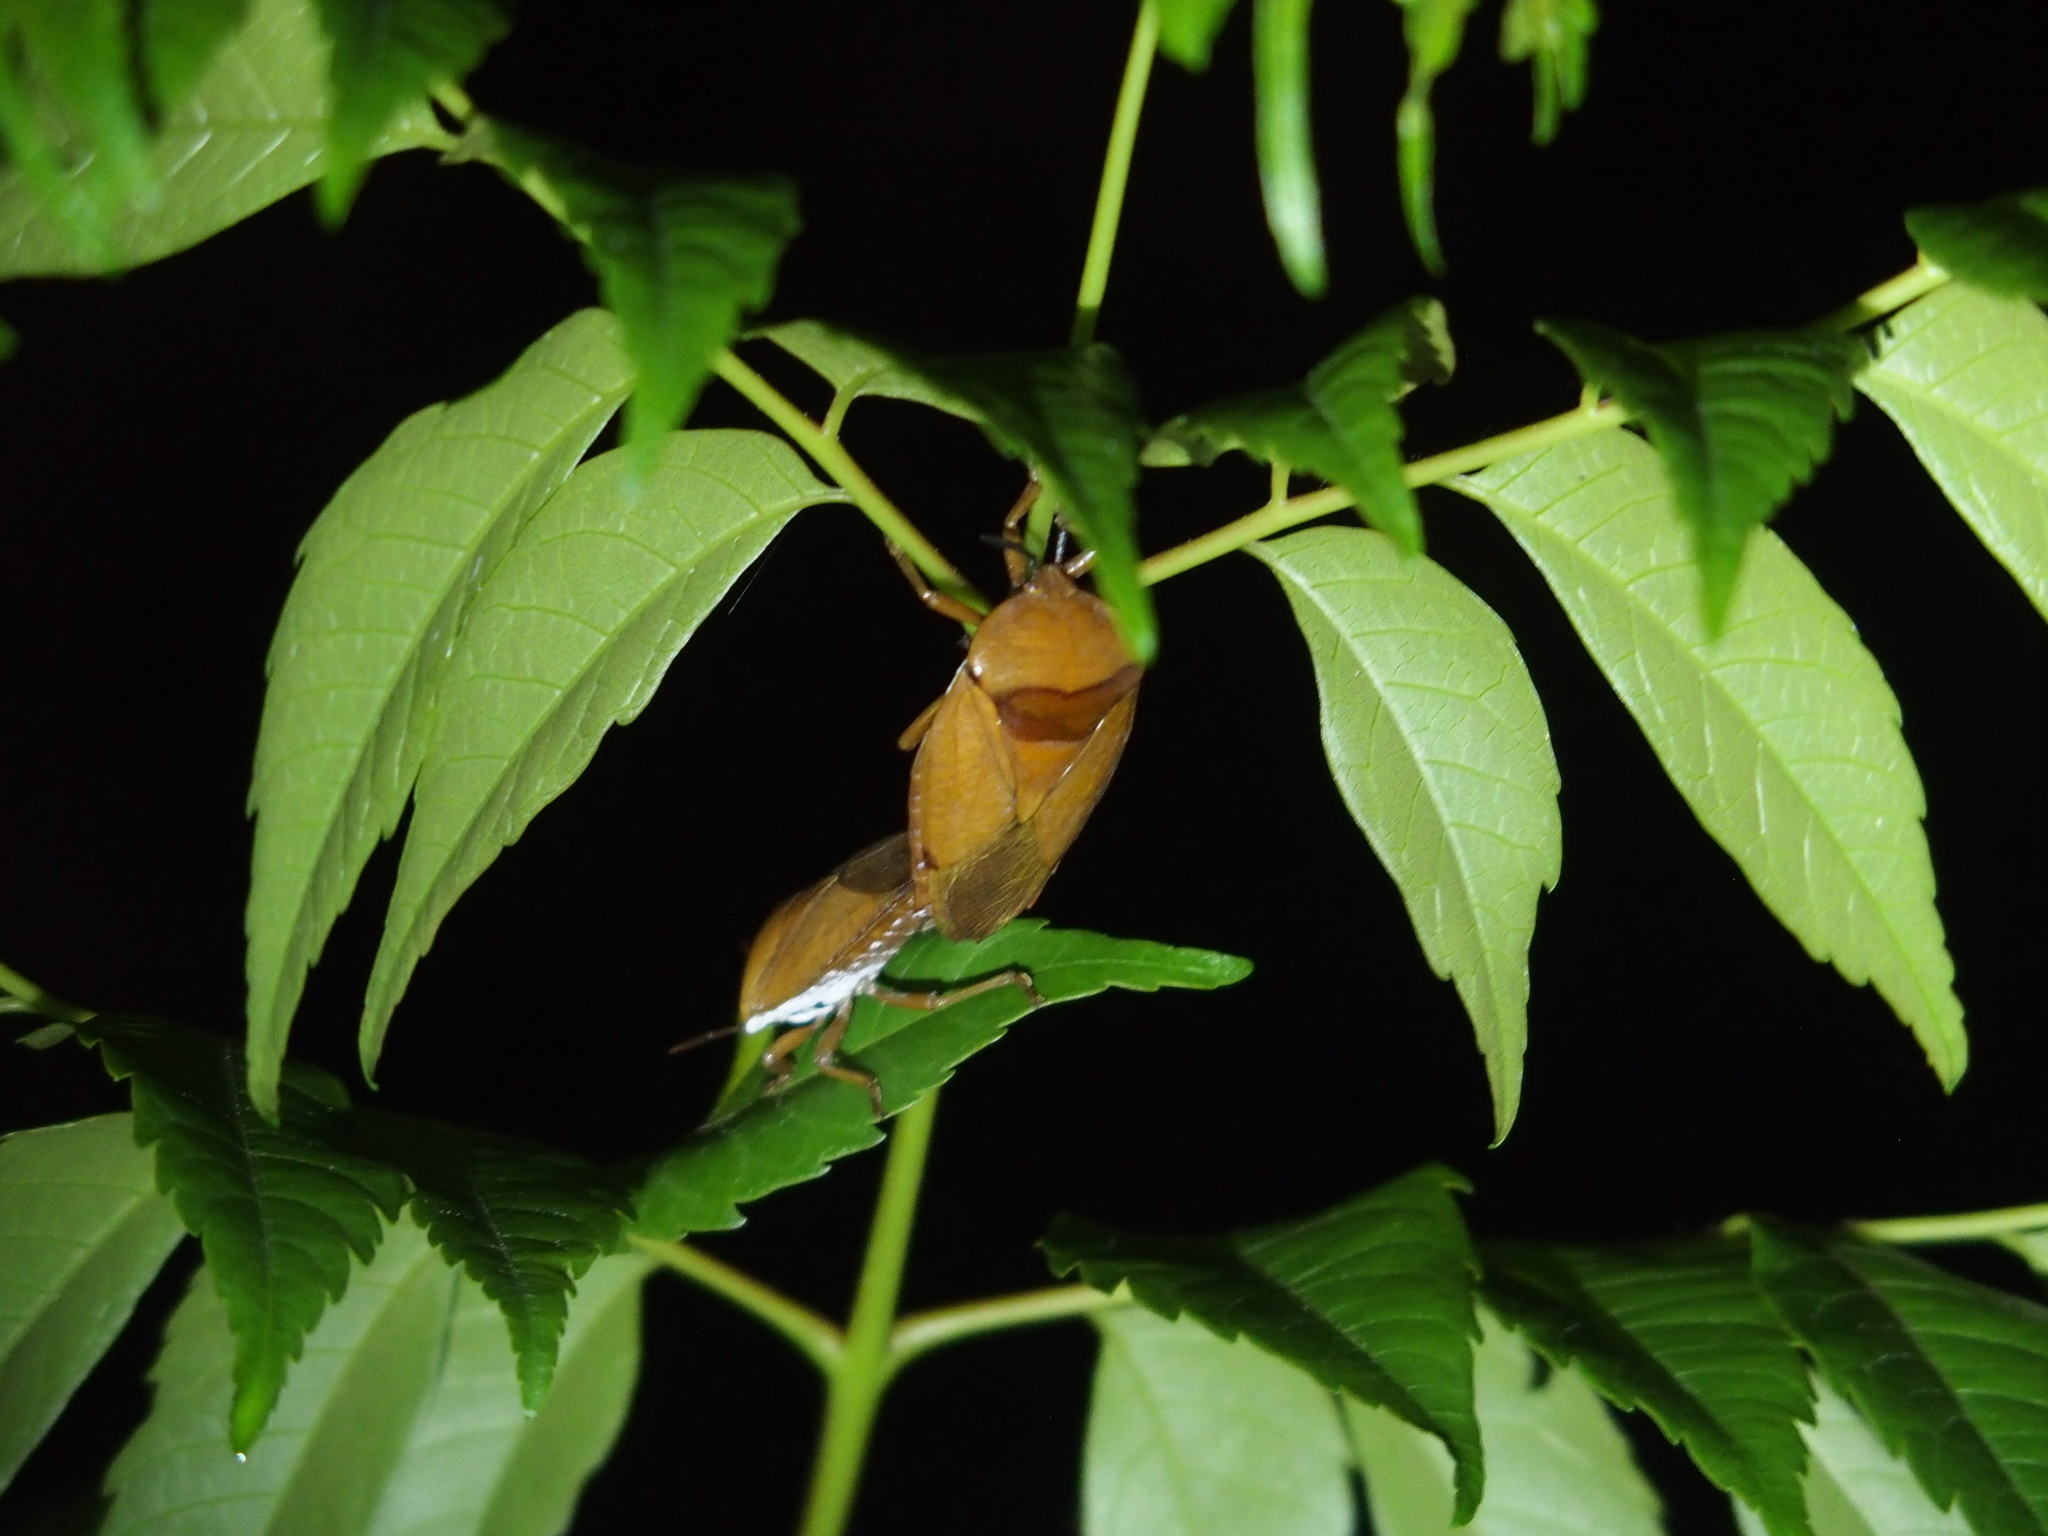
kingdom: Animalia
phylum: Arthropoda
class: Insecta
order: Hemiptera
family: Tessaratomidae
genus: Tessaratoma
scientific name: Tessaratoma papillosa
